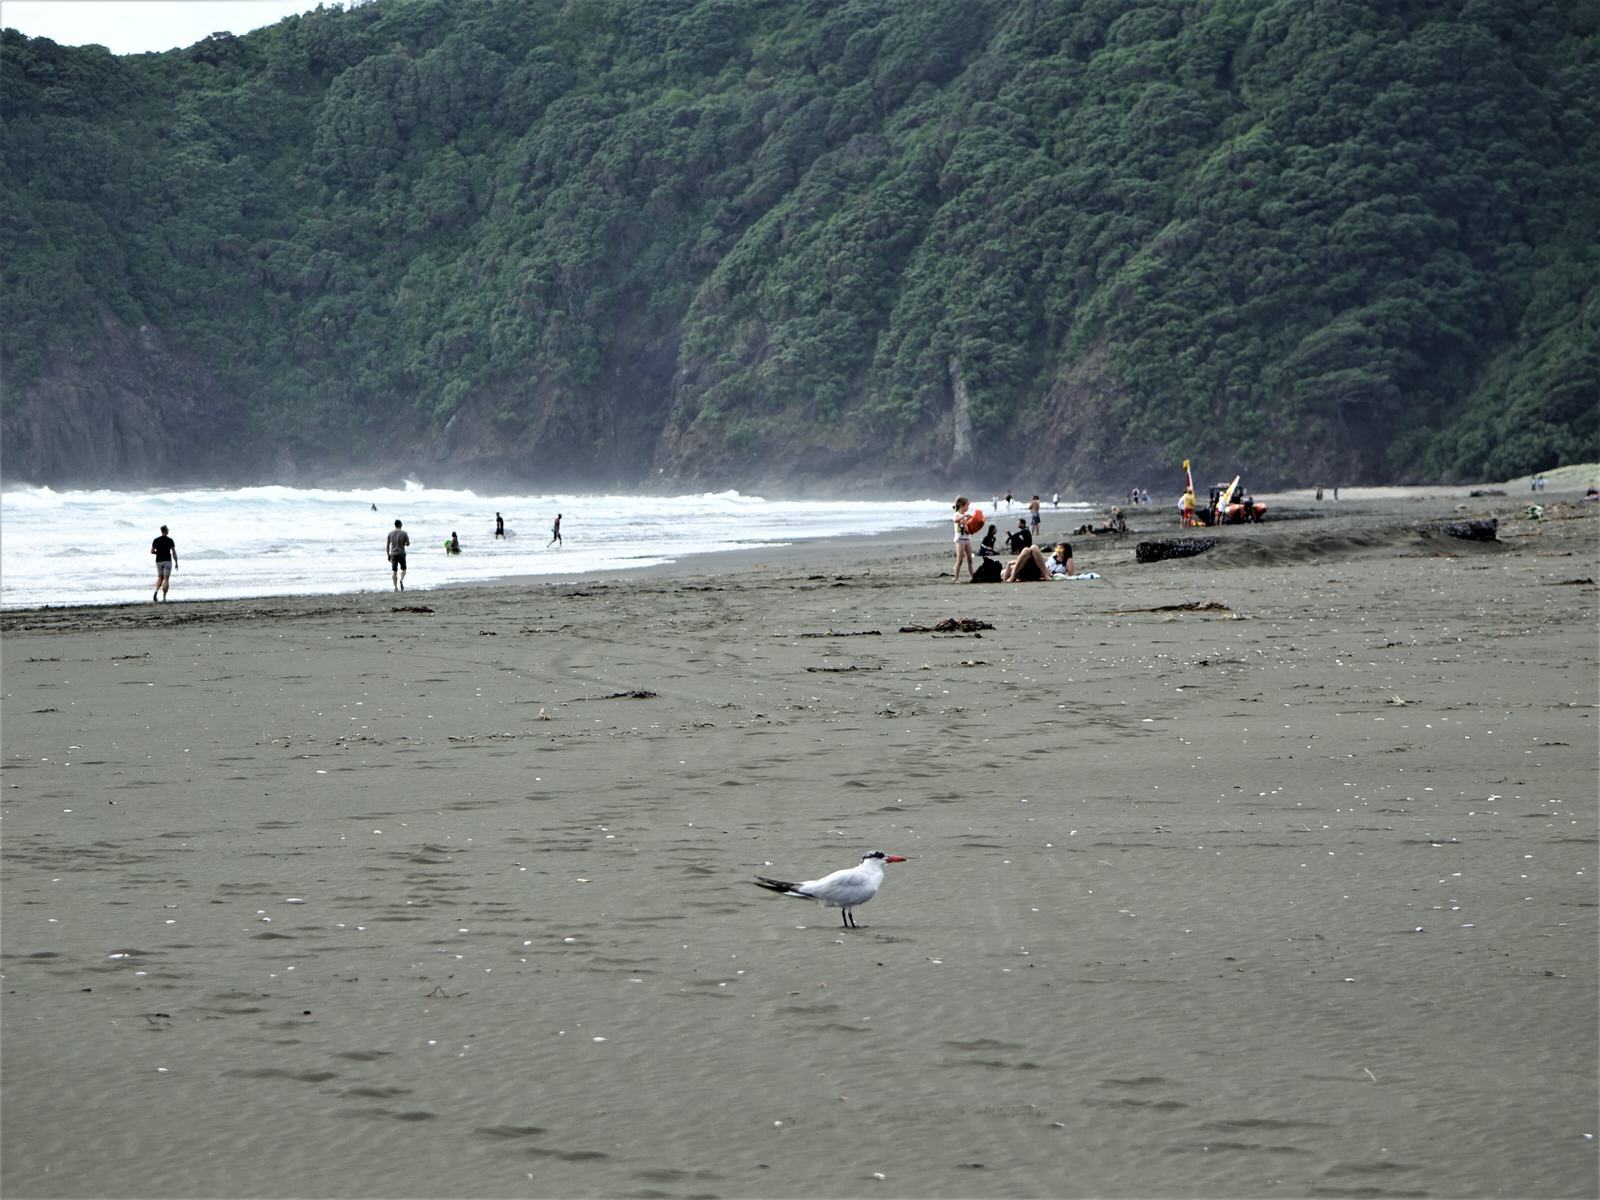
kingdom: Animalia
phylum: Chordata
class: Aves
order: Charadriiformes
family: Laridae
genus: Hydroprogne
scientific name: Hydroprogne caspia
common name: Caspian tern
